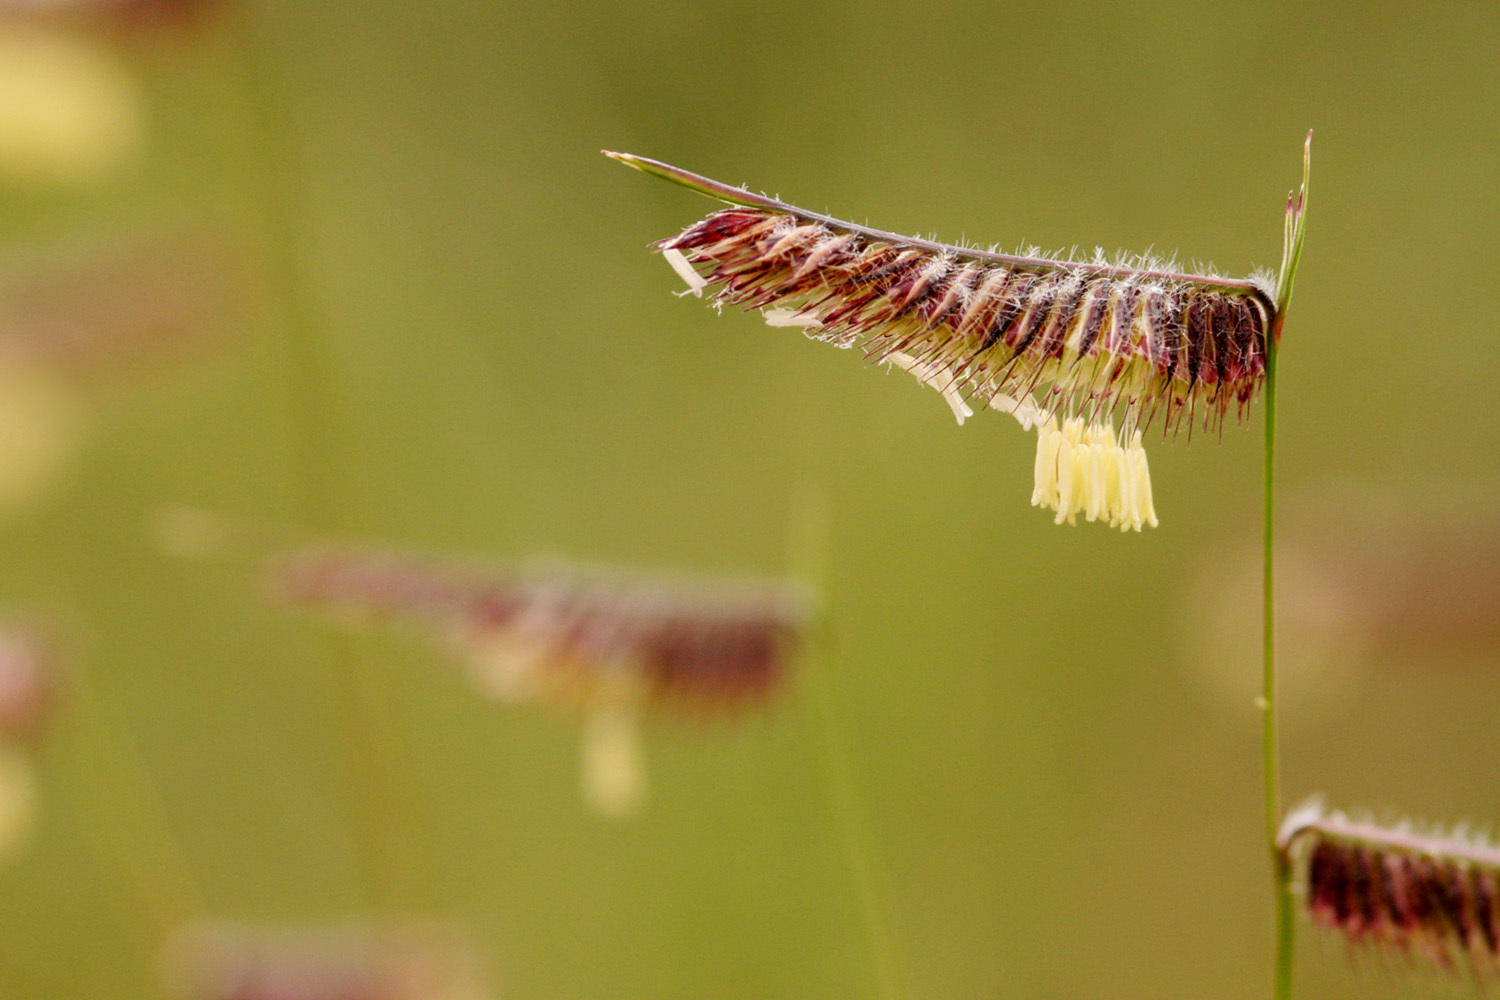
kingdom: Plantae
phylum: Tracheophyta
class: Liliopsida
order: Poales
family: Poaceae
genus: Bouteloua
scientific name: Bouteloua hirsuta
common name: Hairy grama
